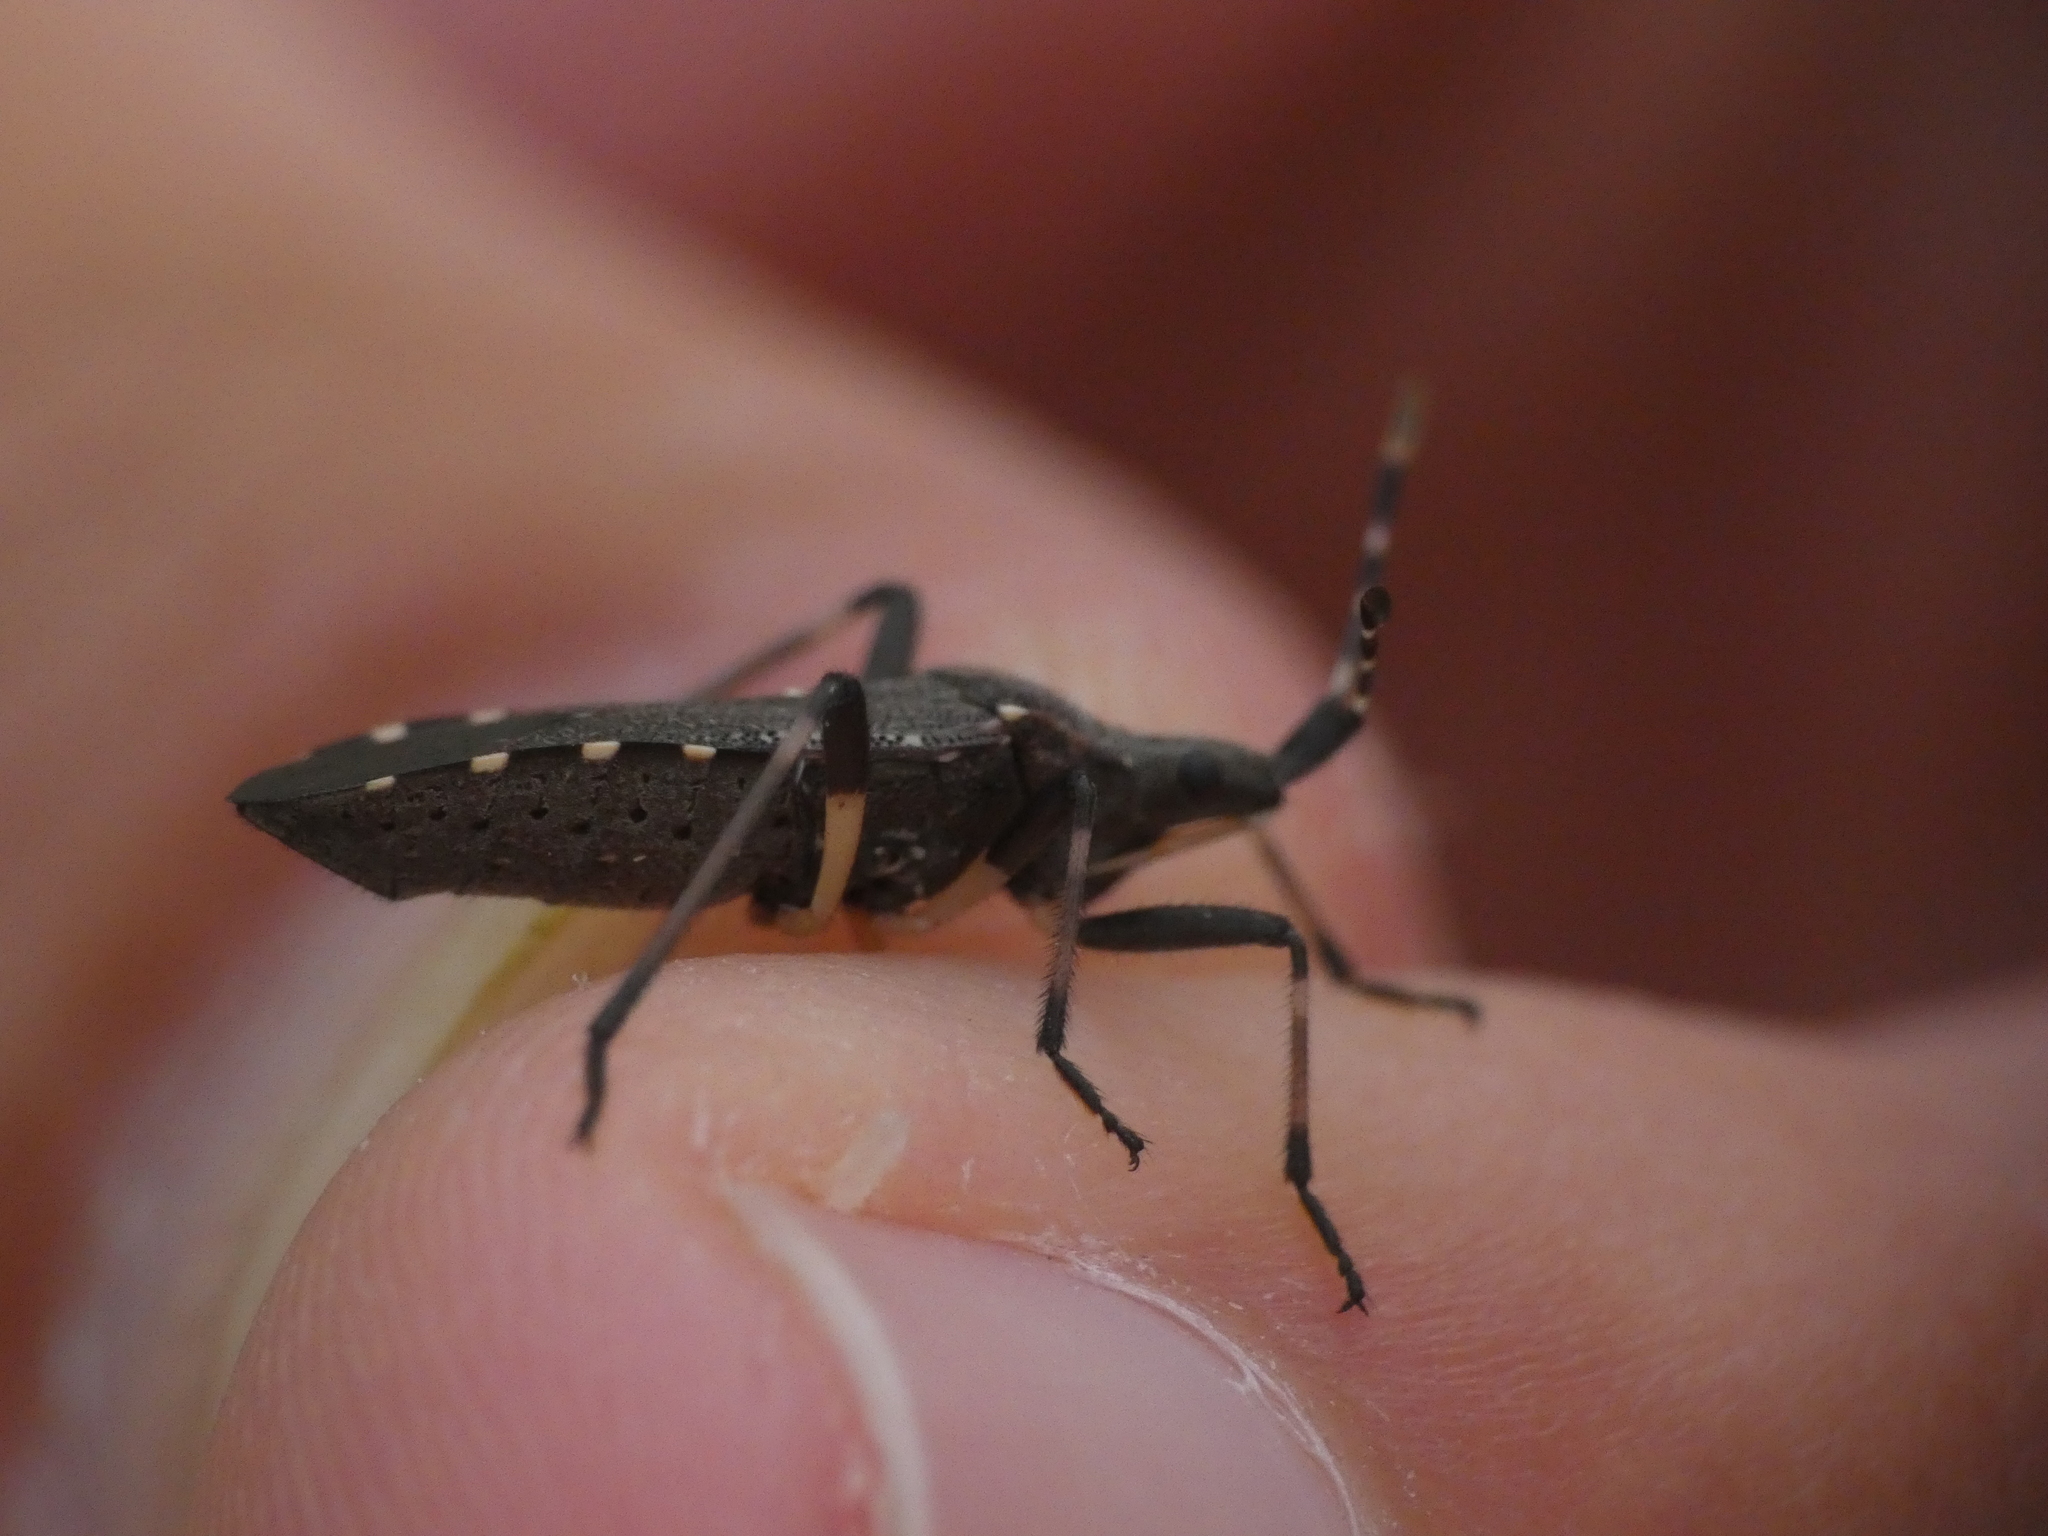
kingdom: Animalia
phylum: Arthropoda
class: Insecta
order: Hemiptera
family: Stenocephalidae
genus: Dicranocephalus
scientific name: Dicranocephalus agilis
